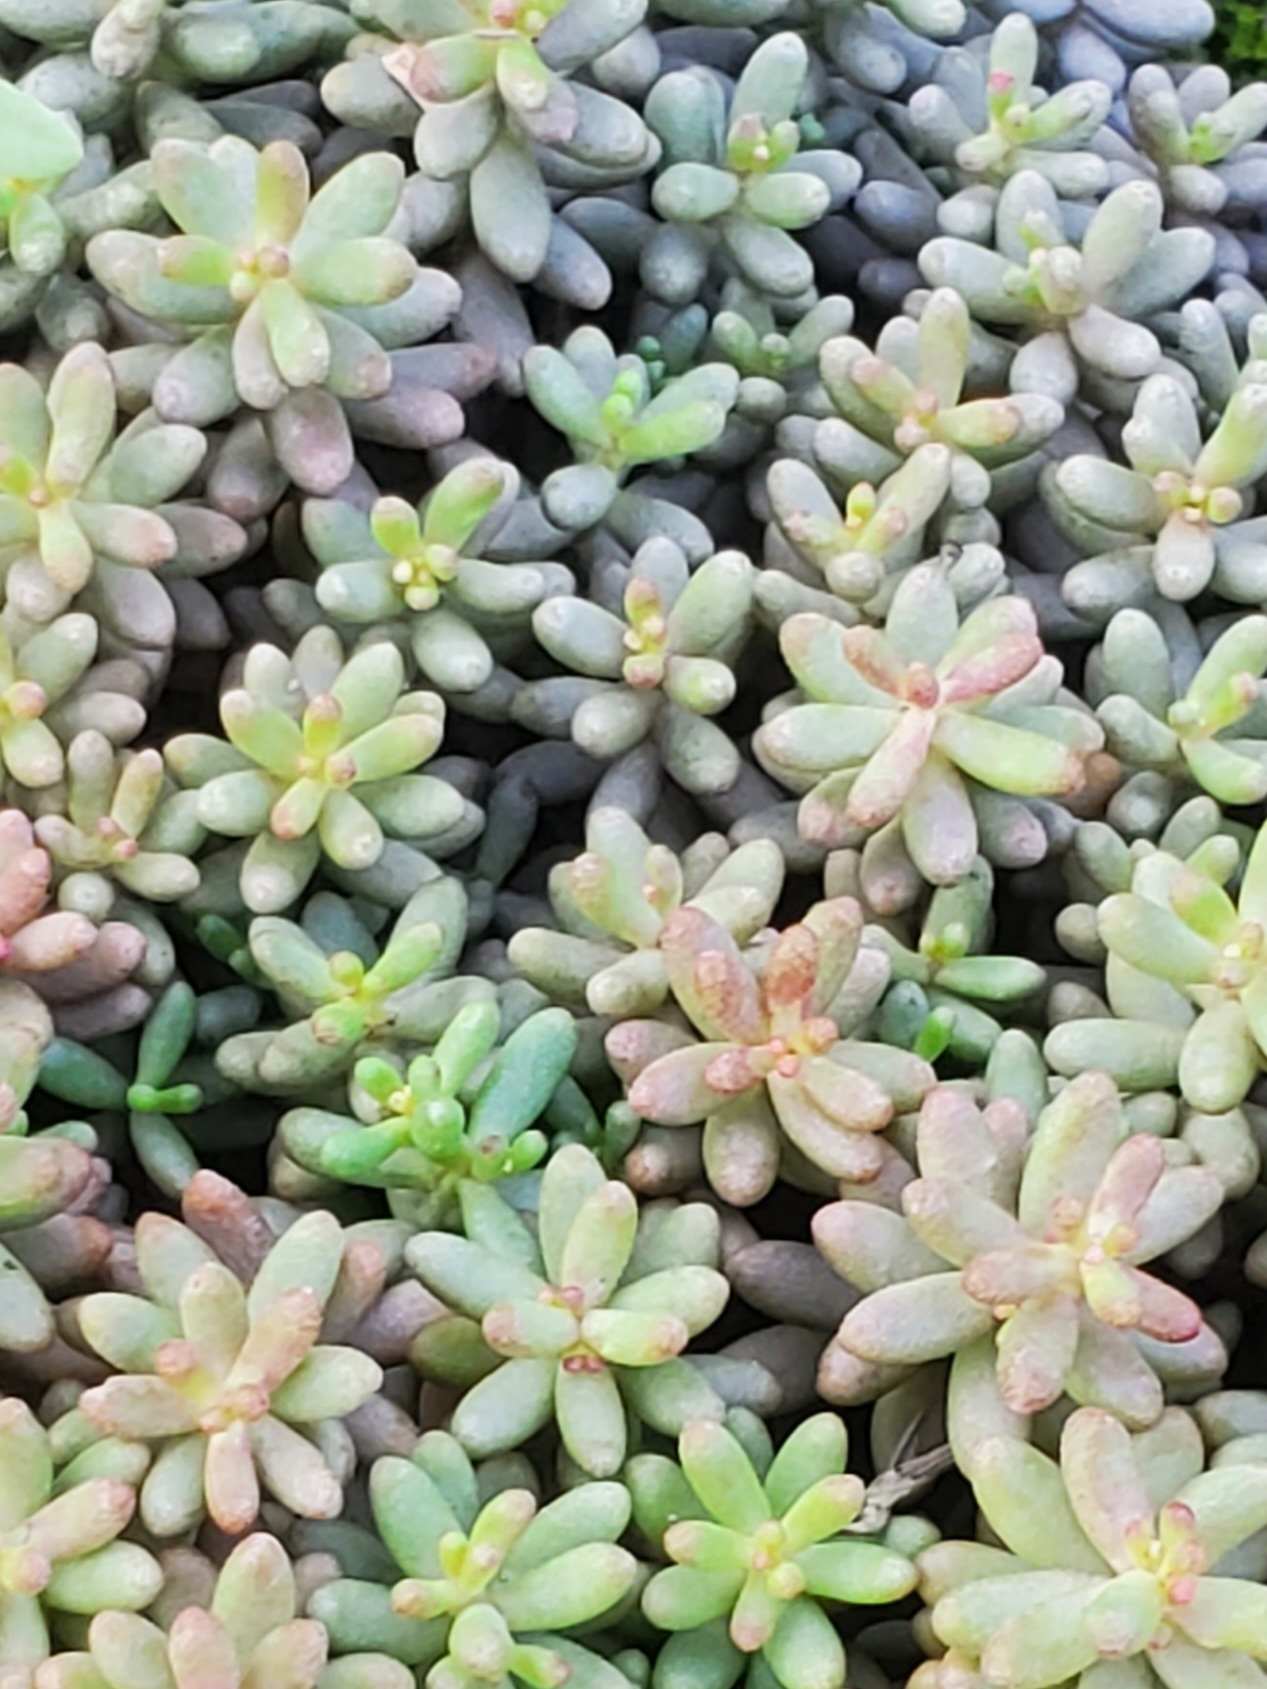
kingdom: Plantae
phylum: Tracheophyta
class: Magnoliopsida
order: Saxifragales
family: Crassulaceae
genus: Sedum
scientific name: Sedum album
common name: White stonecrop
